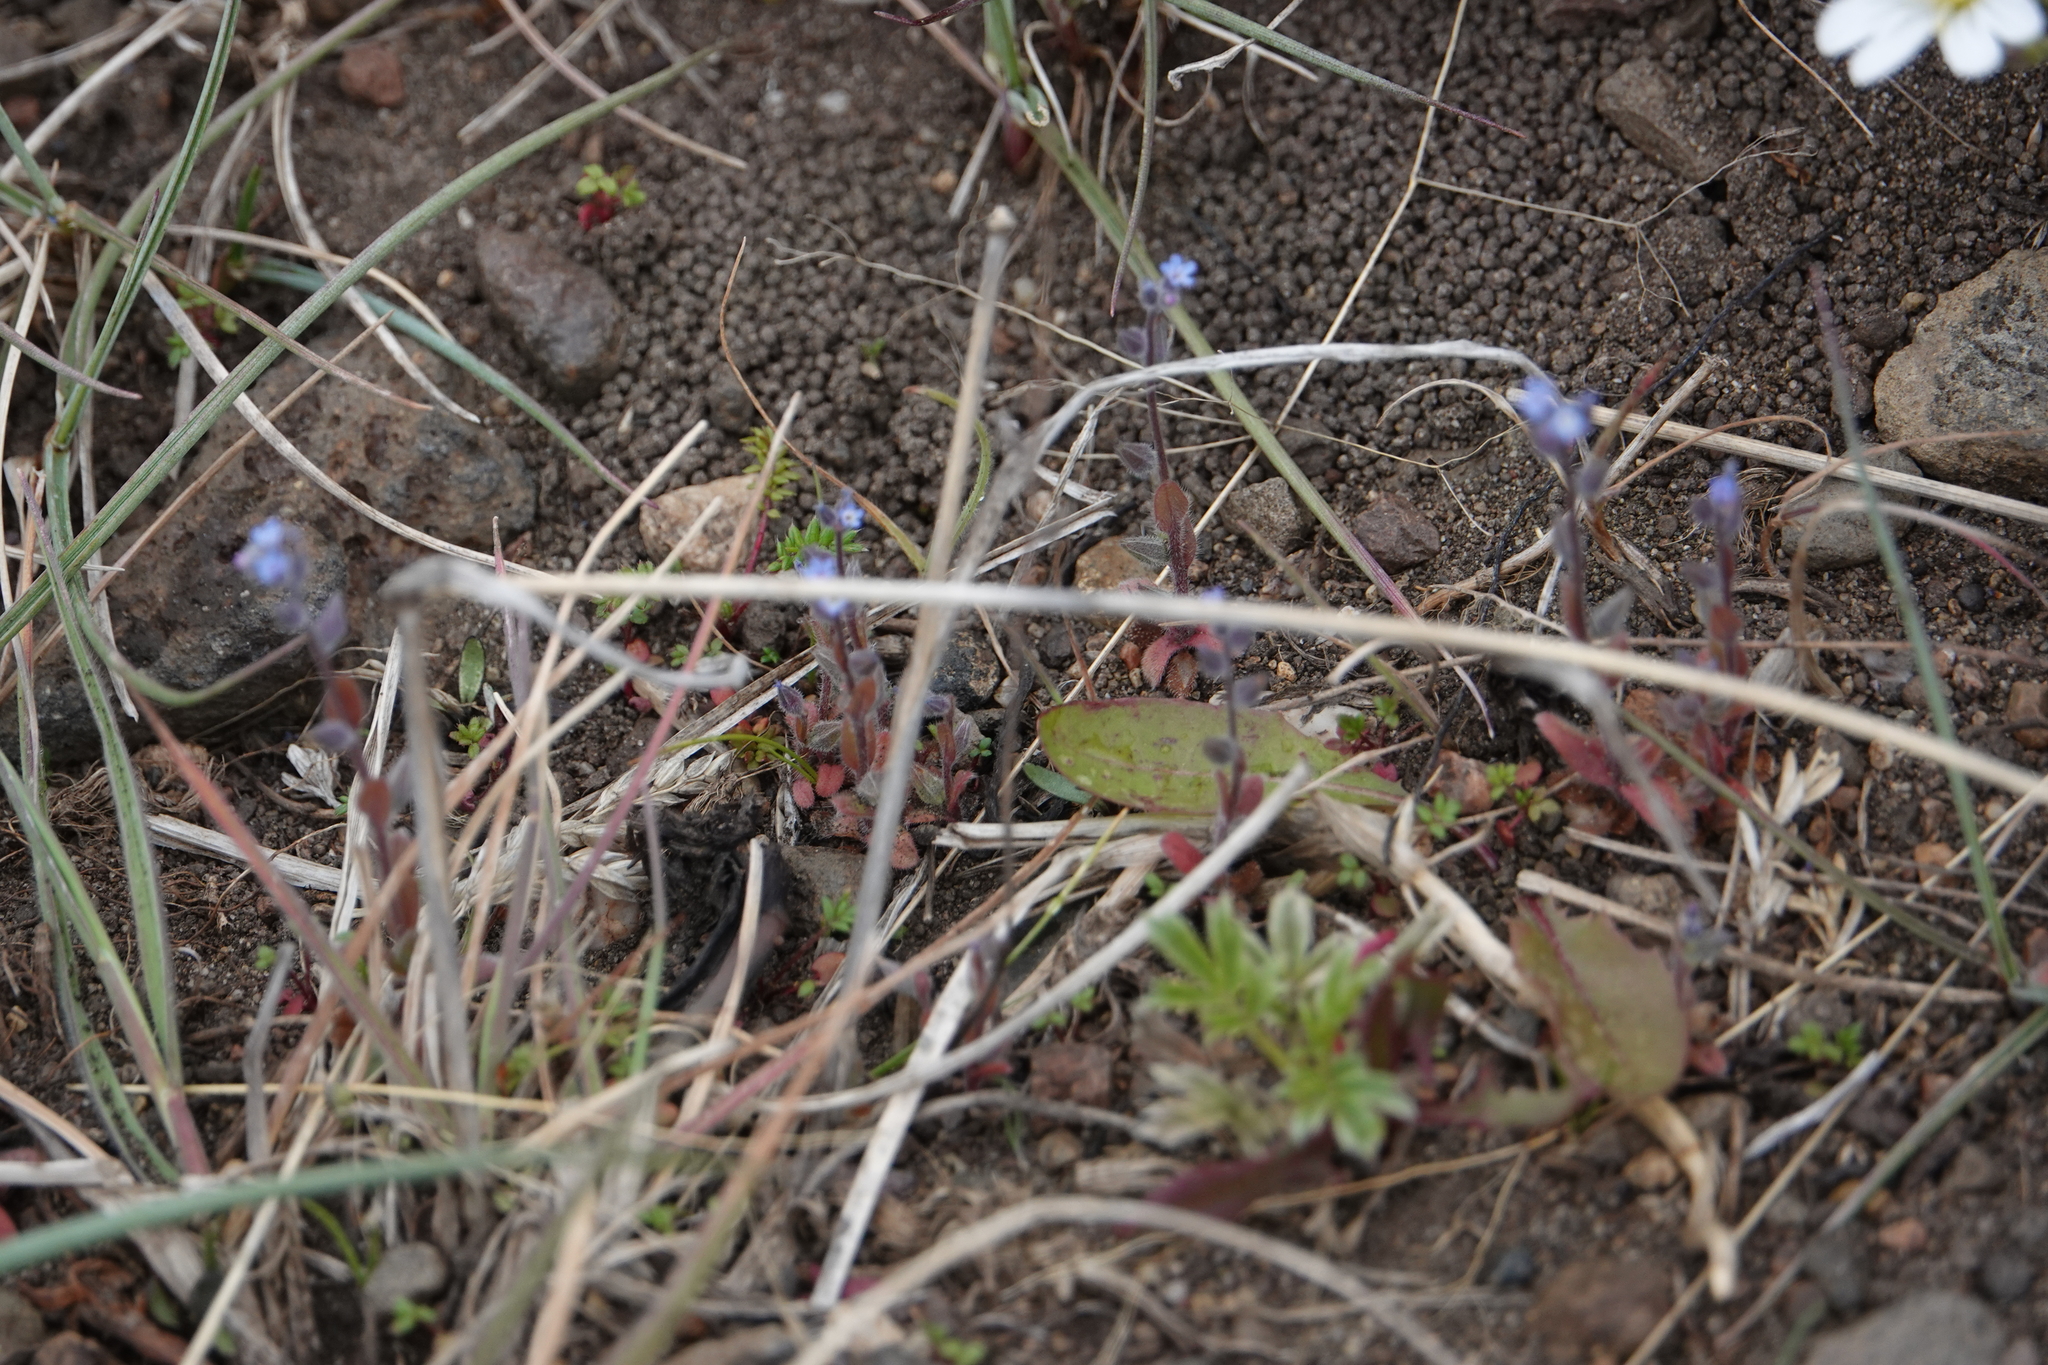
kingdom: Plantae
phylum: Tracheophyta
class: Magnoliopsida
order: Boraginales
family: Boraginaceae
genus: Myosotis
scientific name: Myosotis stricta
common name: Strict forget-me-not
